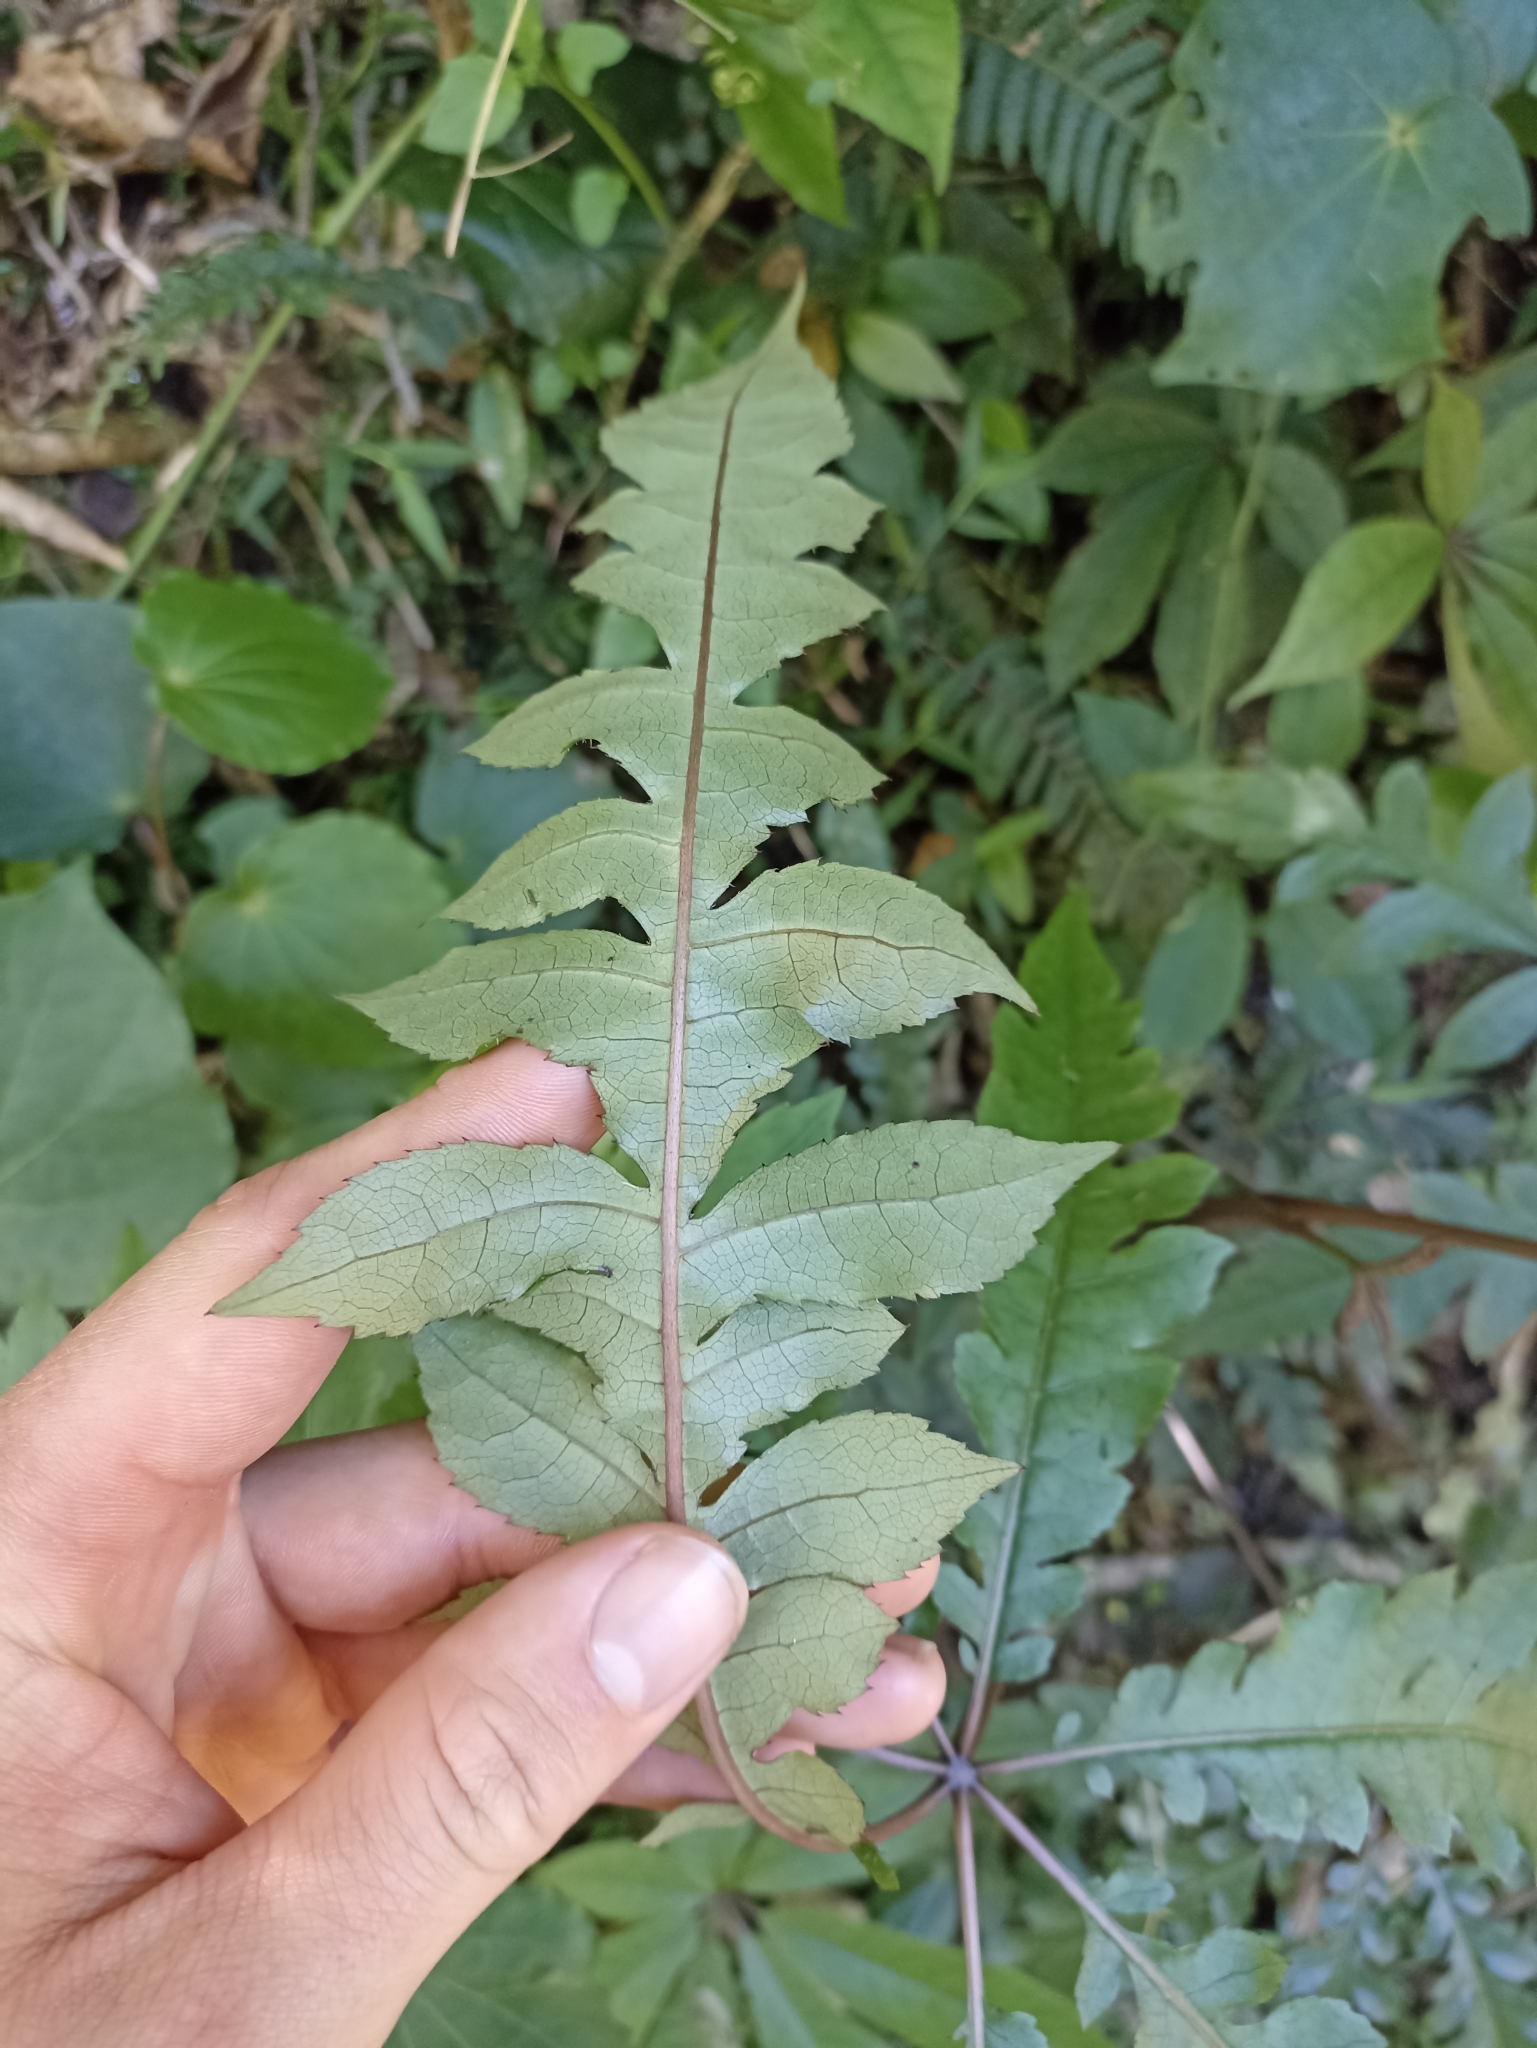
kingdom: Plantae
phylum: Tracheophyta
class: Magnoliopsida
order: Apiales
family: Araliaceae
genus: Schefflera
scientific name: Schefflera digitata
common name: Pate
